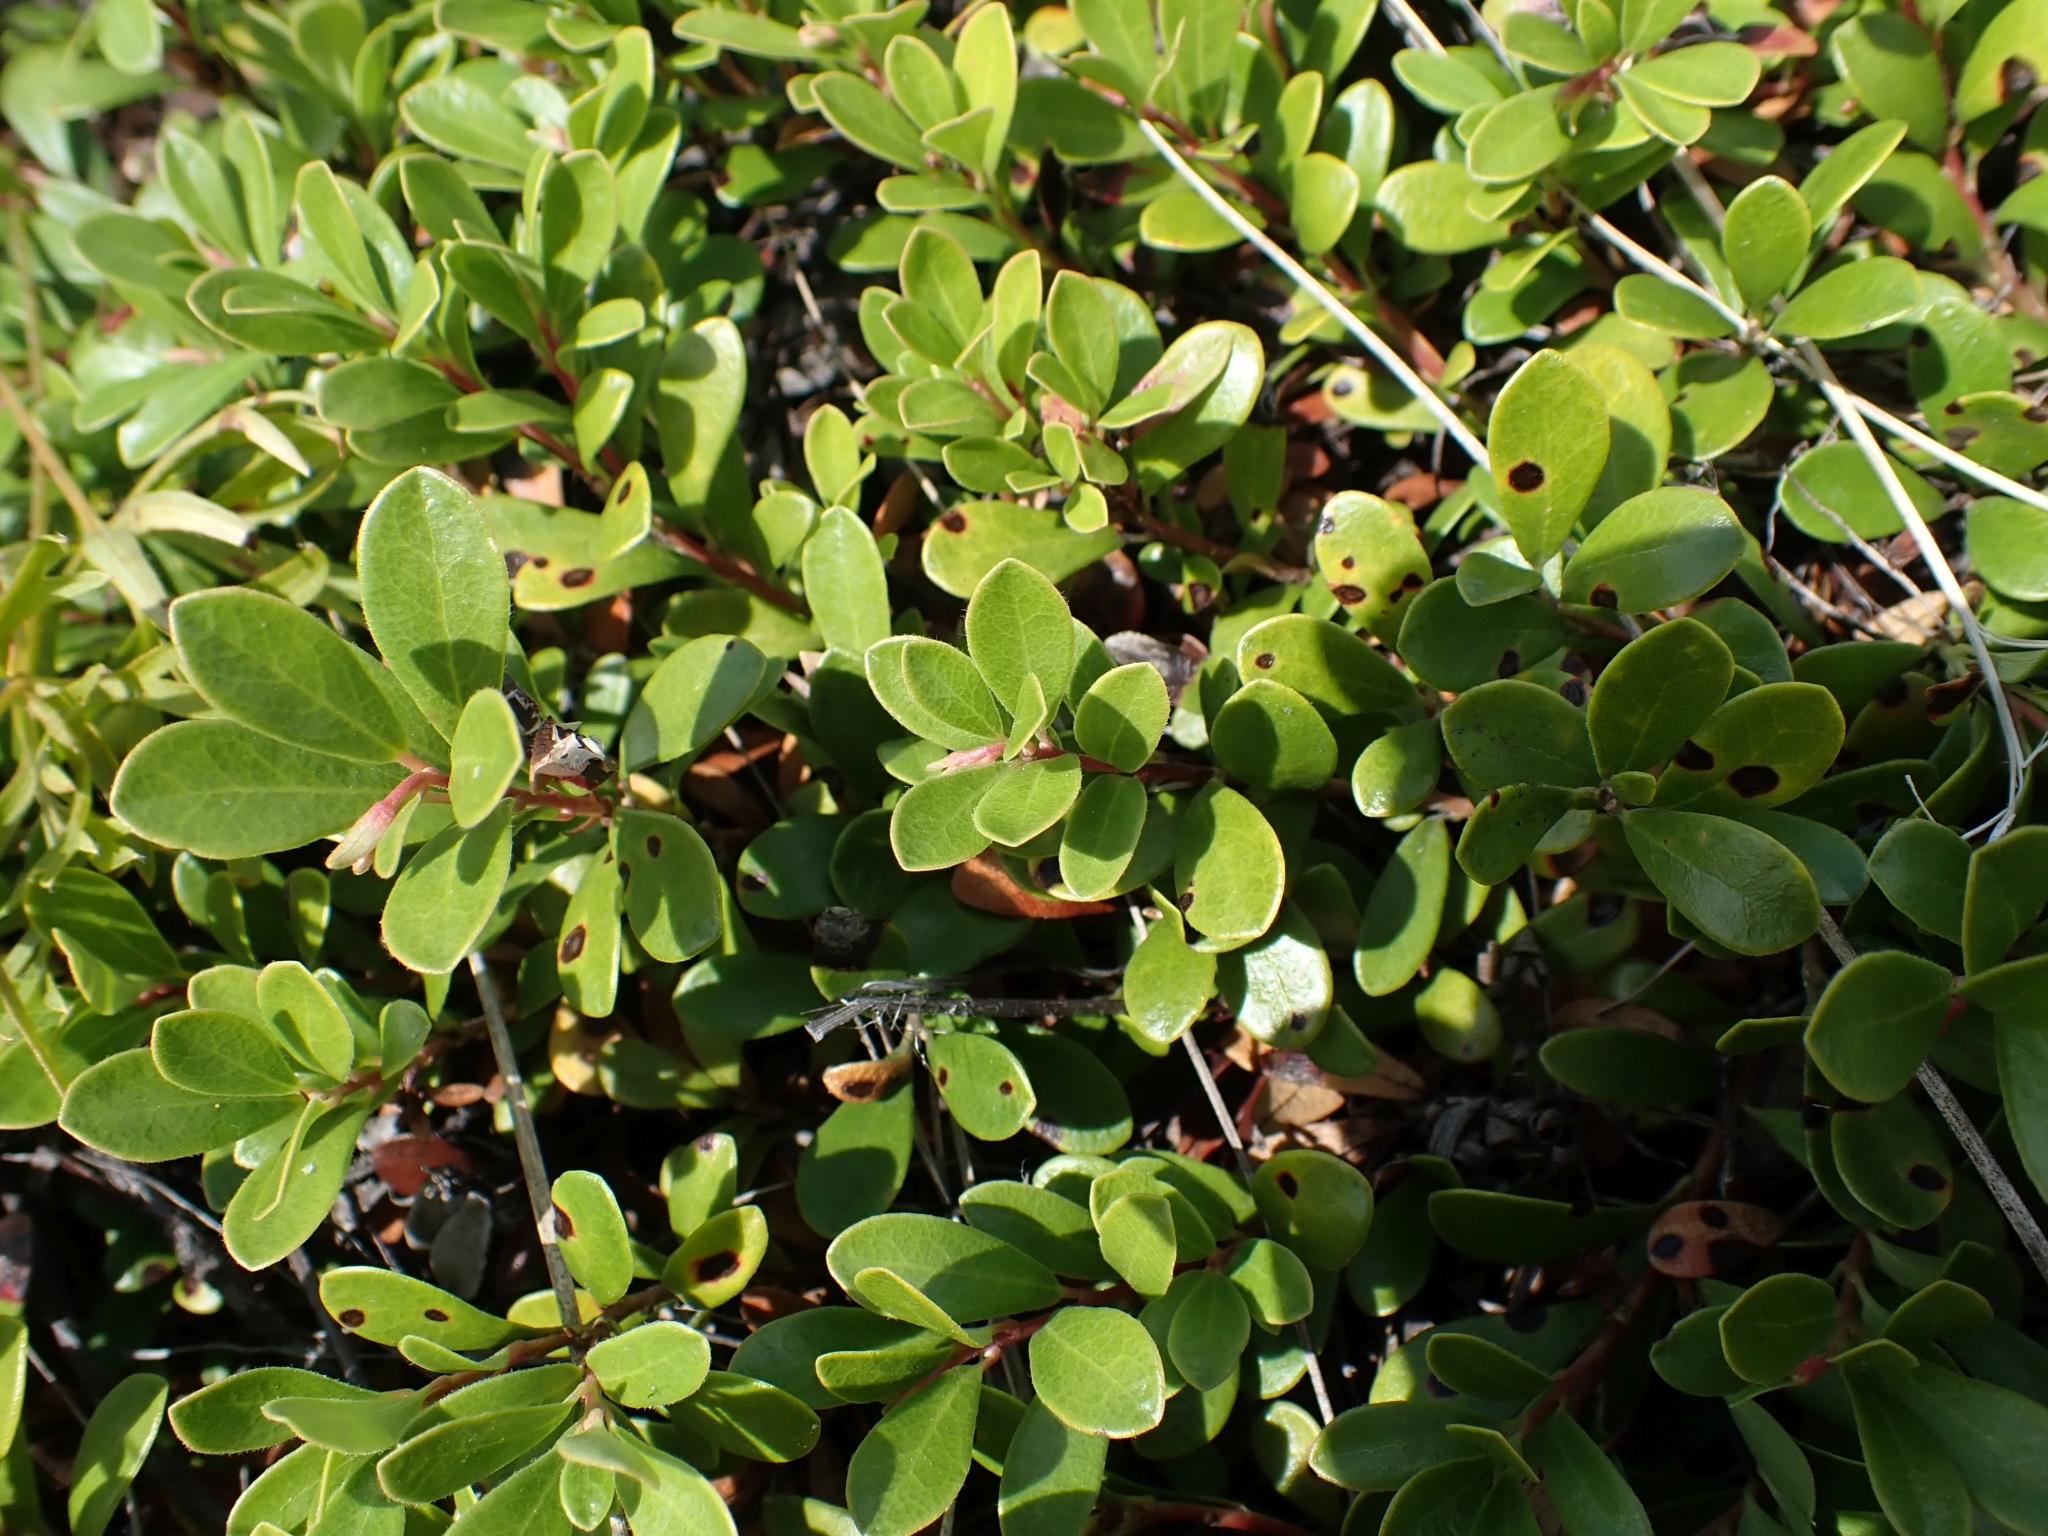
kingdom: Plantae
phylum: Tracheophyta
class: Magnoliopsida
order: Ericales
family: Ericaceae
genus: Arctostaphylos
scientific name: Arctostaphylos uva-ursi
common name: Bearberry
